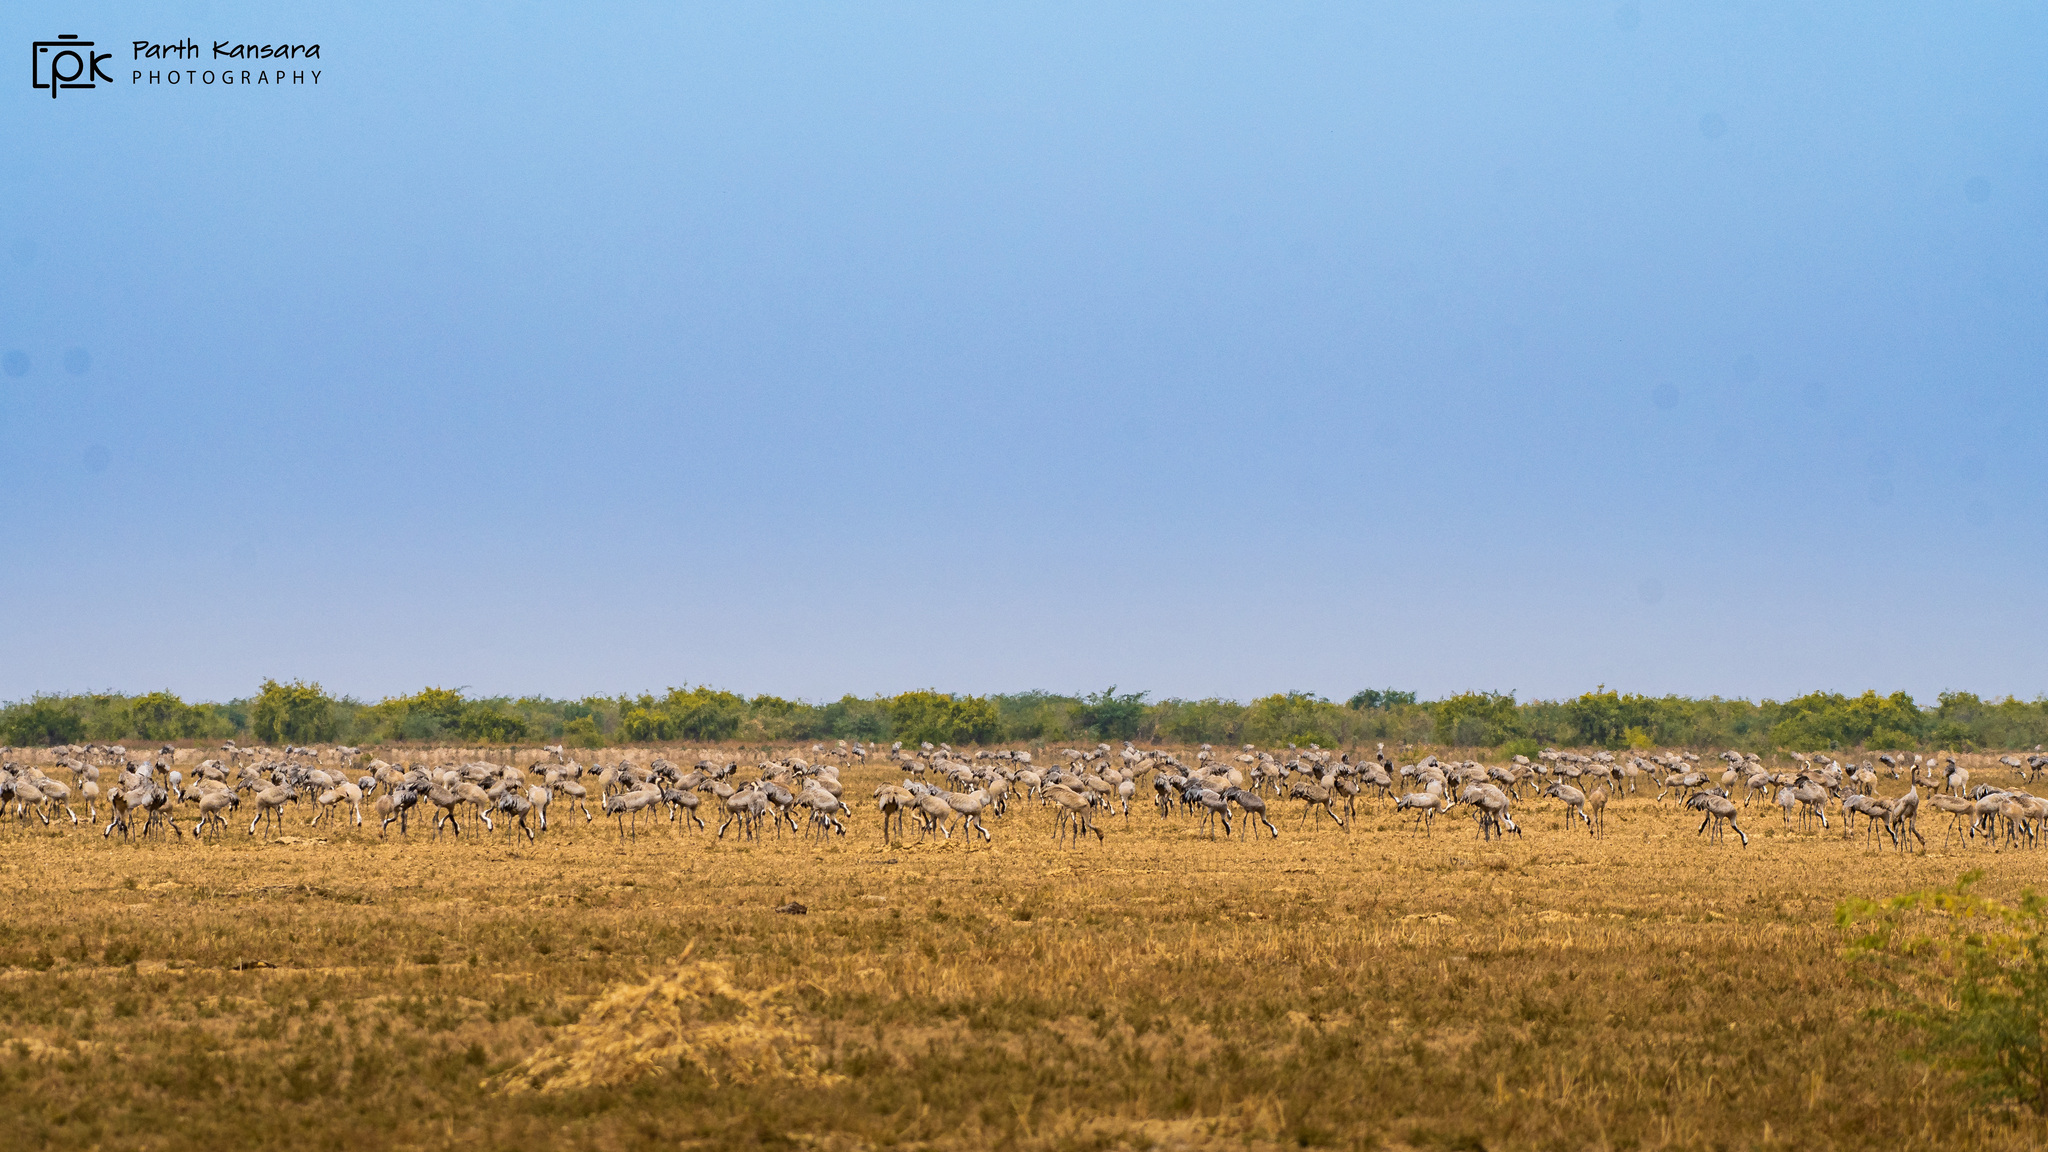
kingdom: Animalia
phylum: Chordata
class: Aves
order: Gruiformes
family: Gruidae
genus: Grus
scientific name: Grus grus
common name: Common crane
